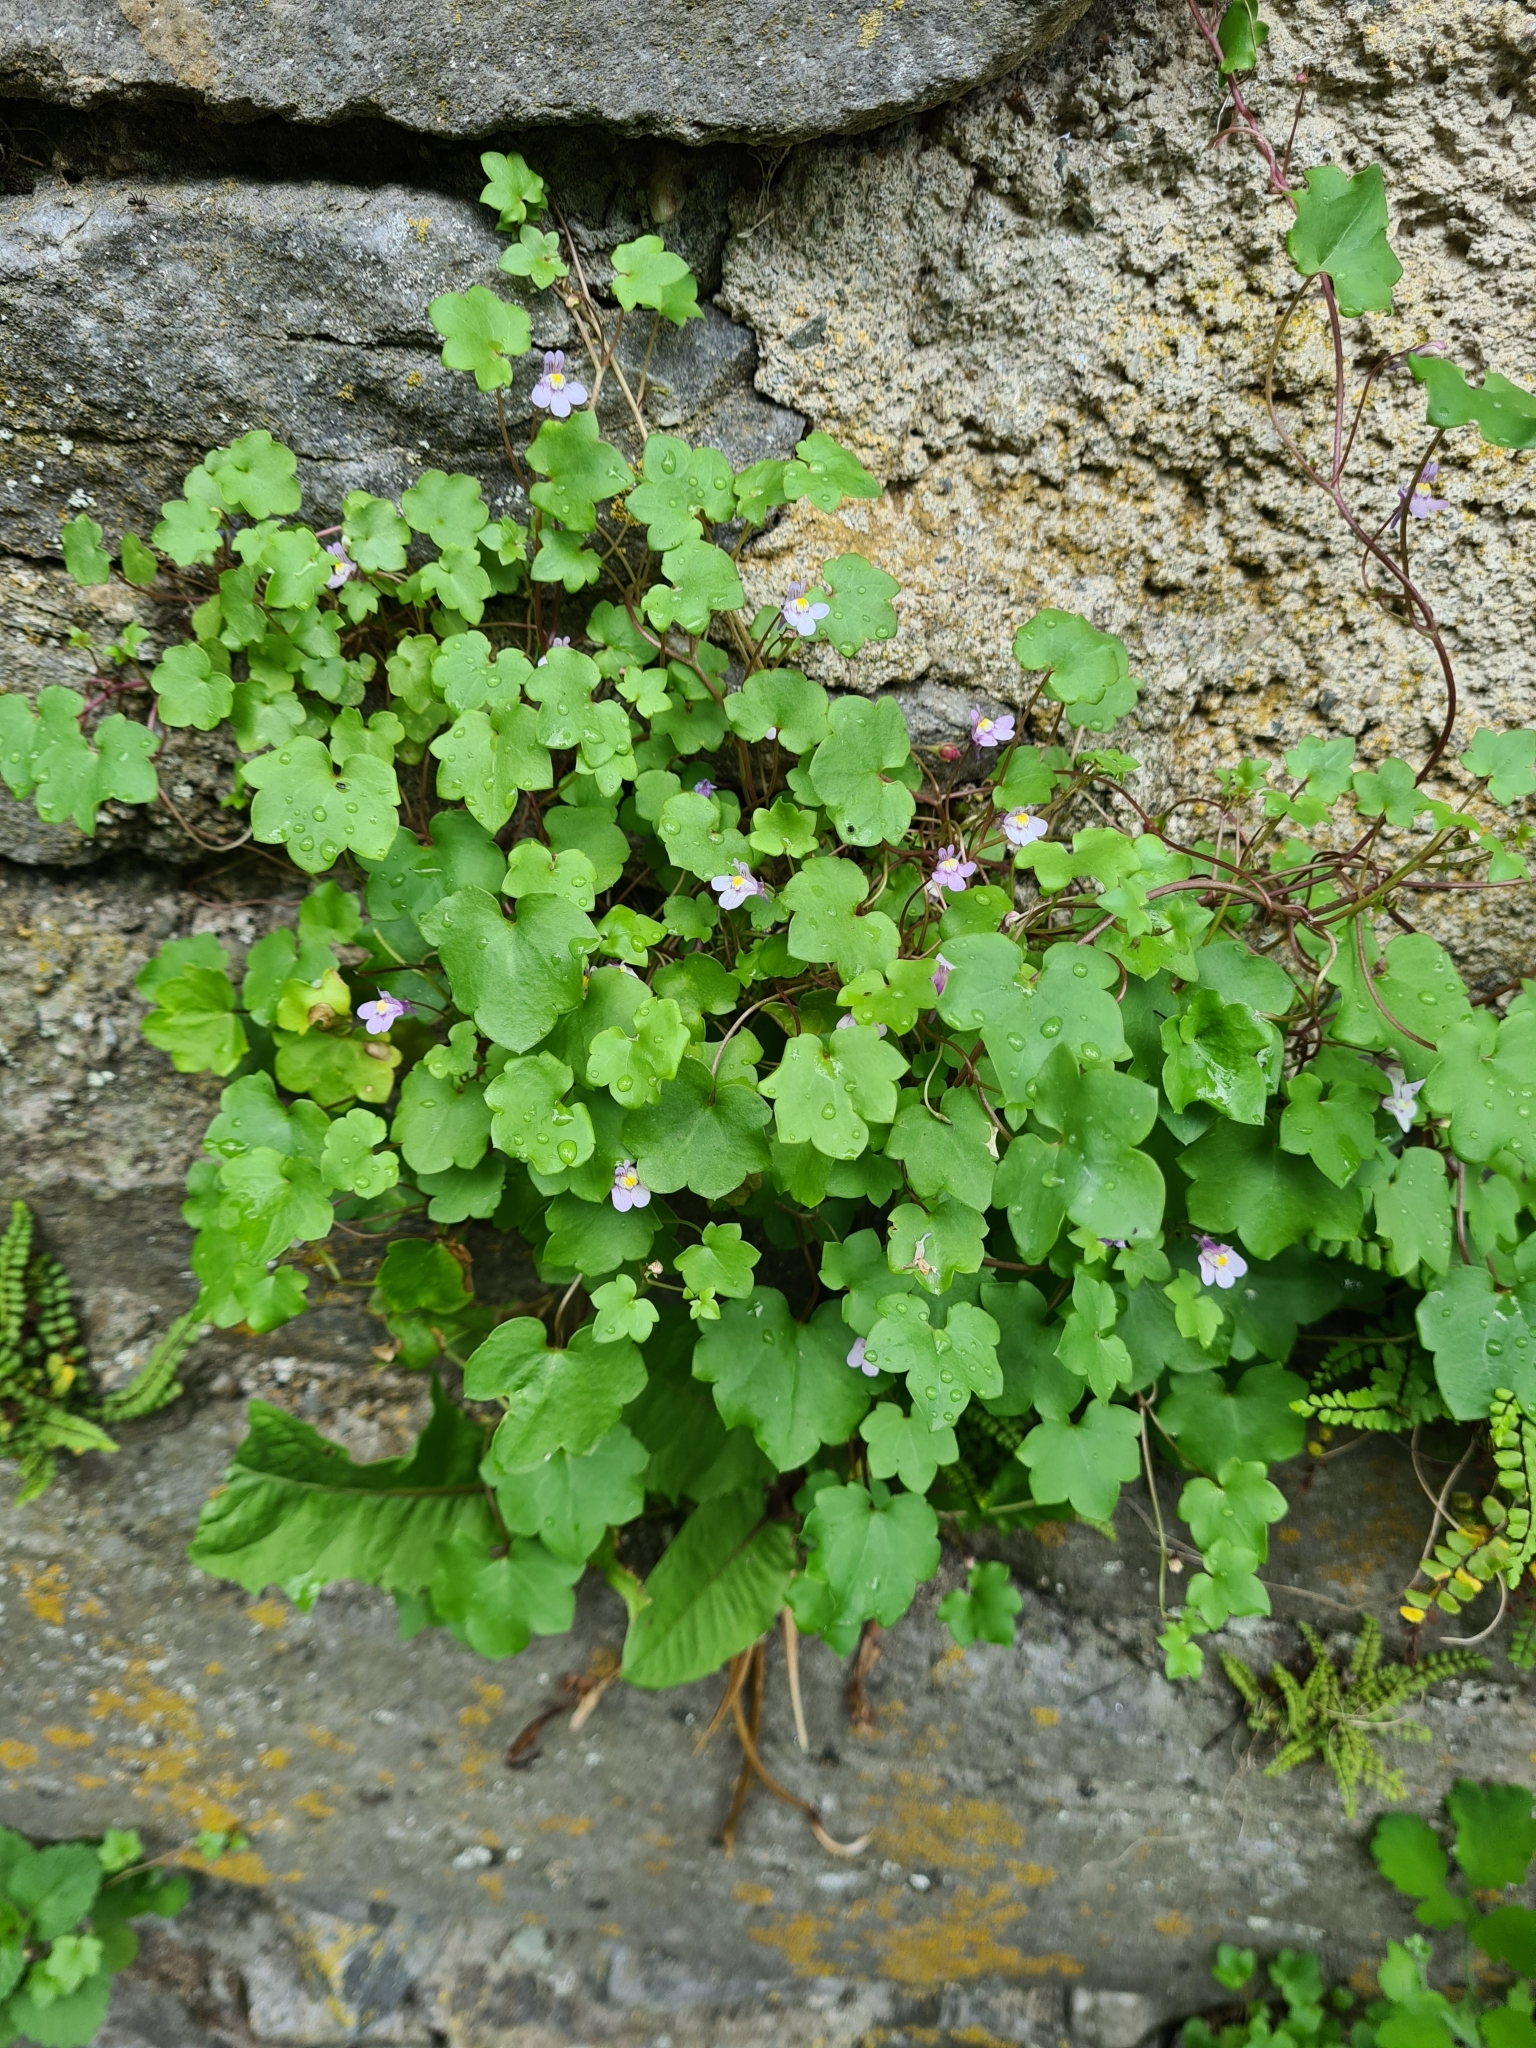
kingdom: Plantae
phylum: Tracheophyta
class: Magnoliopsida
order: Lamiales
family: Plantaginaceae
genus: Cymbalaria
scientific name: Cymbalaria muralis
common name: Ivy-leaved toadflax
